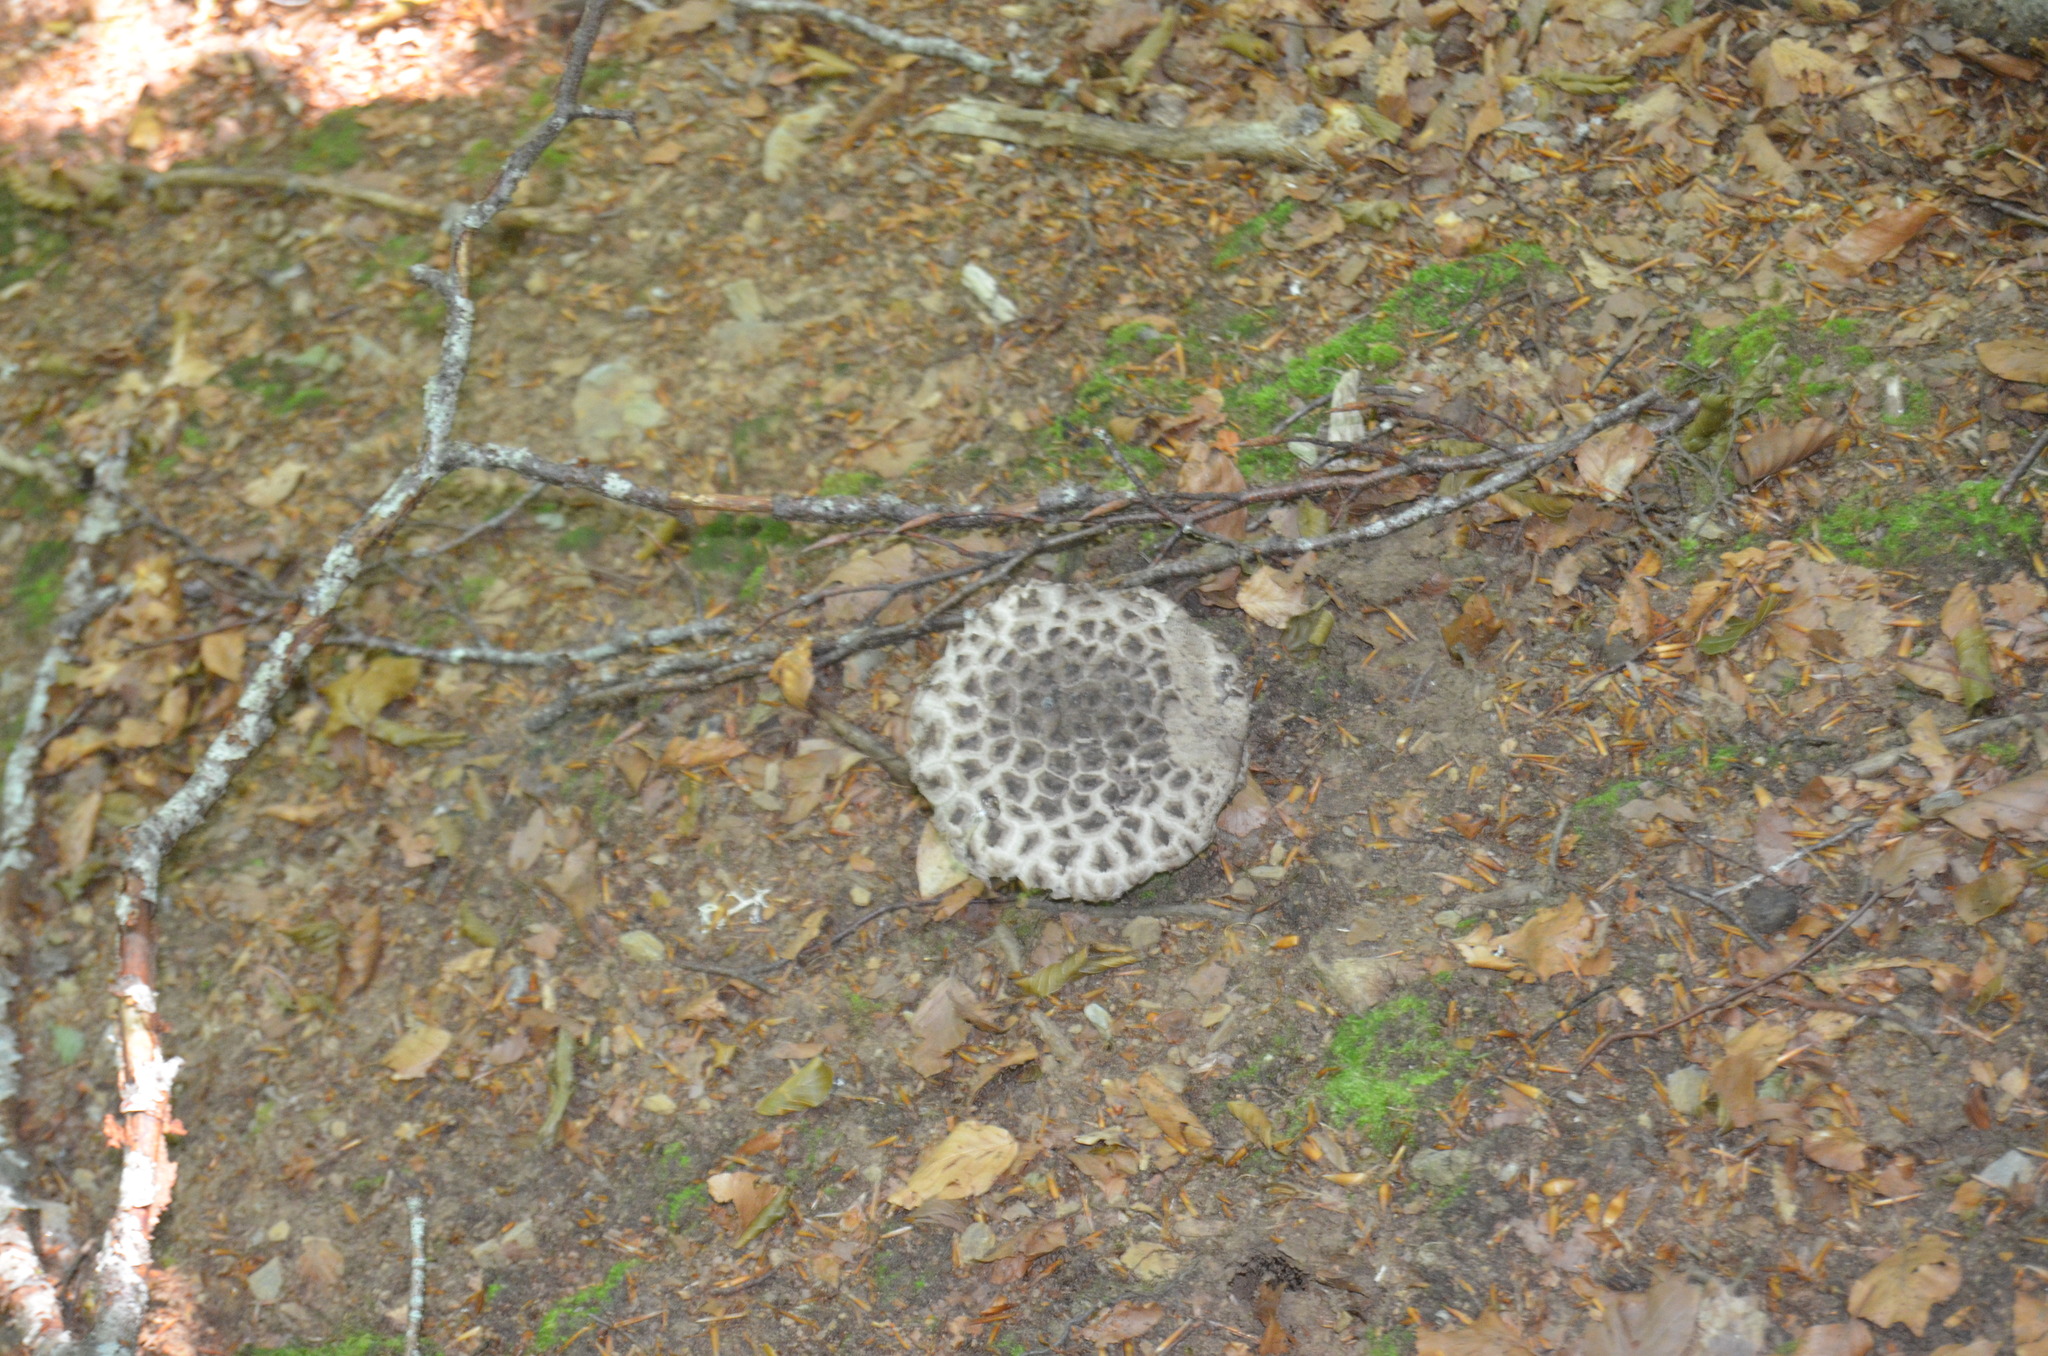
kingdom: Fungi
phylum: Basidiomycota
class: Agaricomycetes
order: Boletales
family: Boletaceae
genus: Strobilomyces
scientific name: Strobilomyces strobilaceus
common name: Old man of the woods
